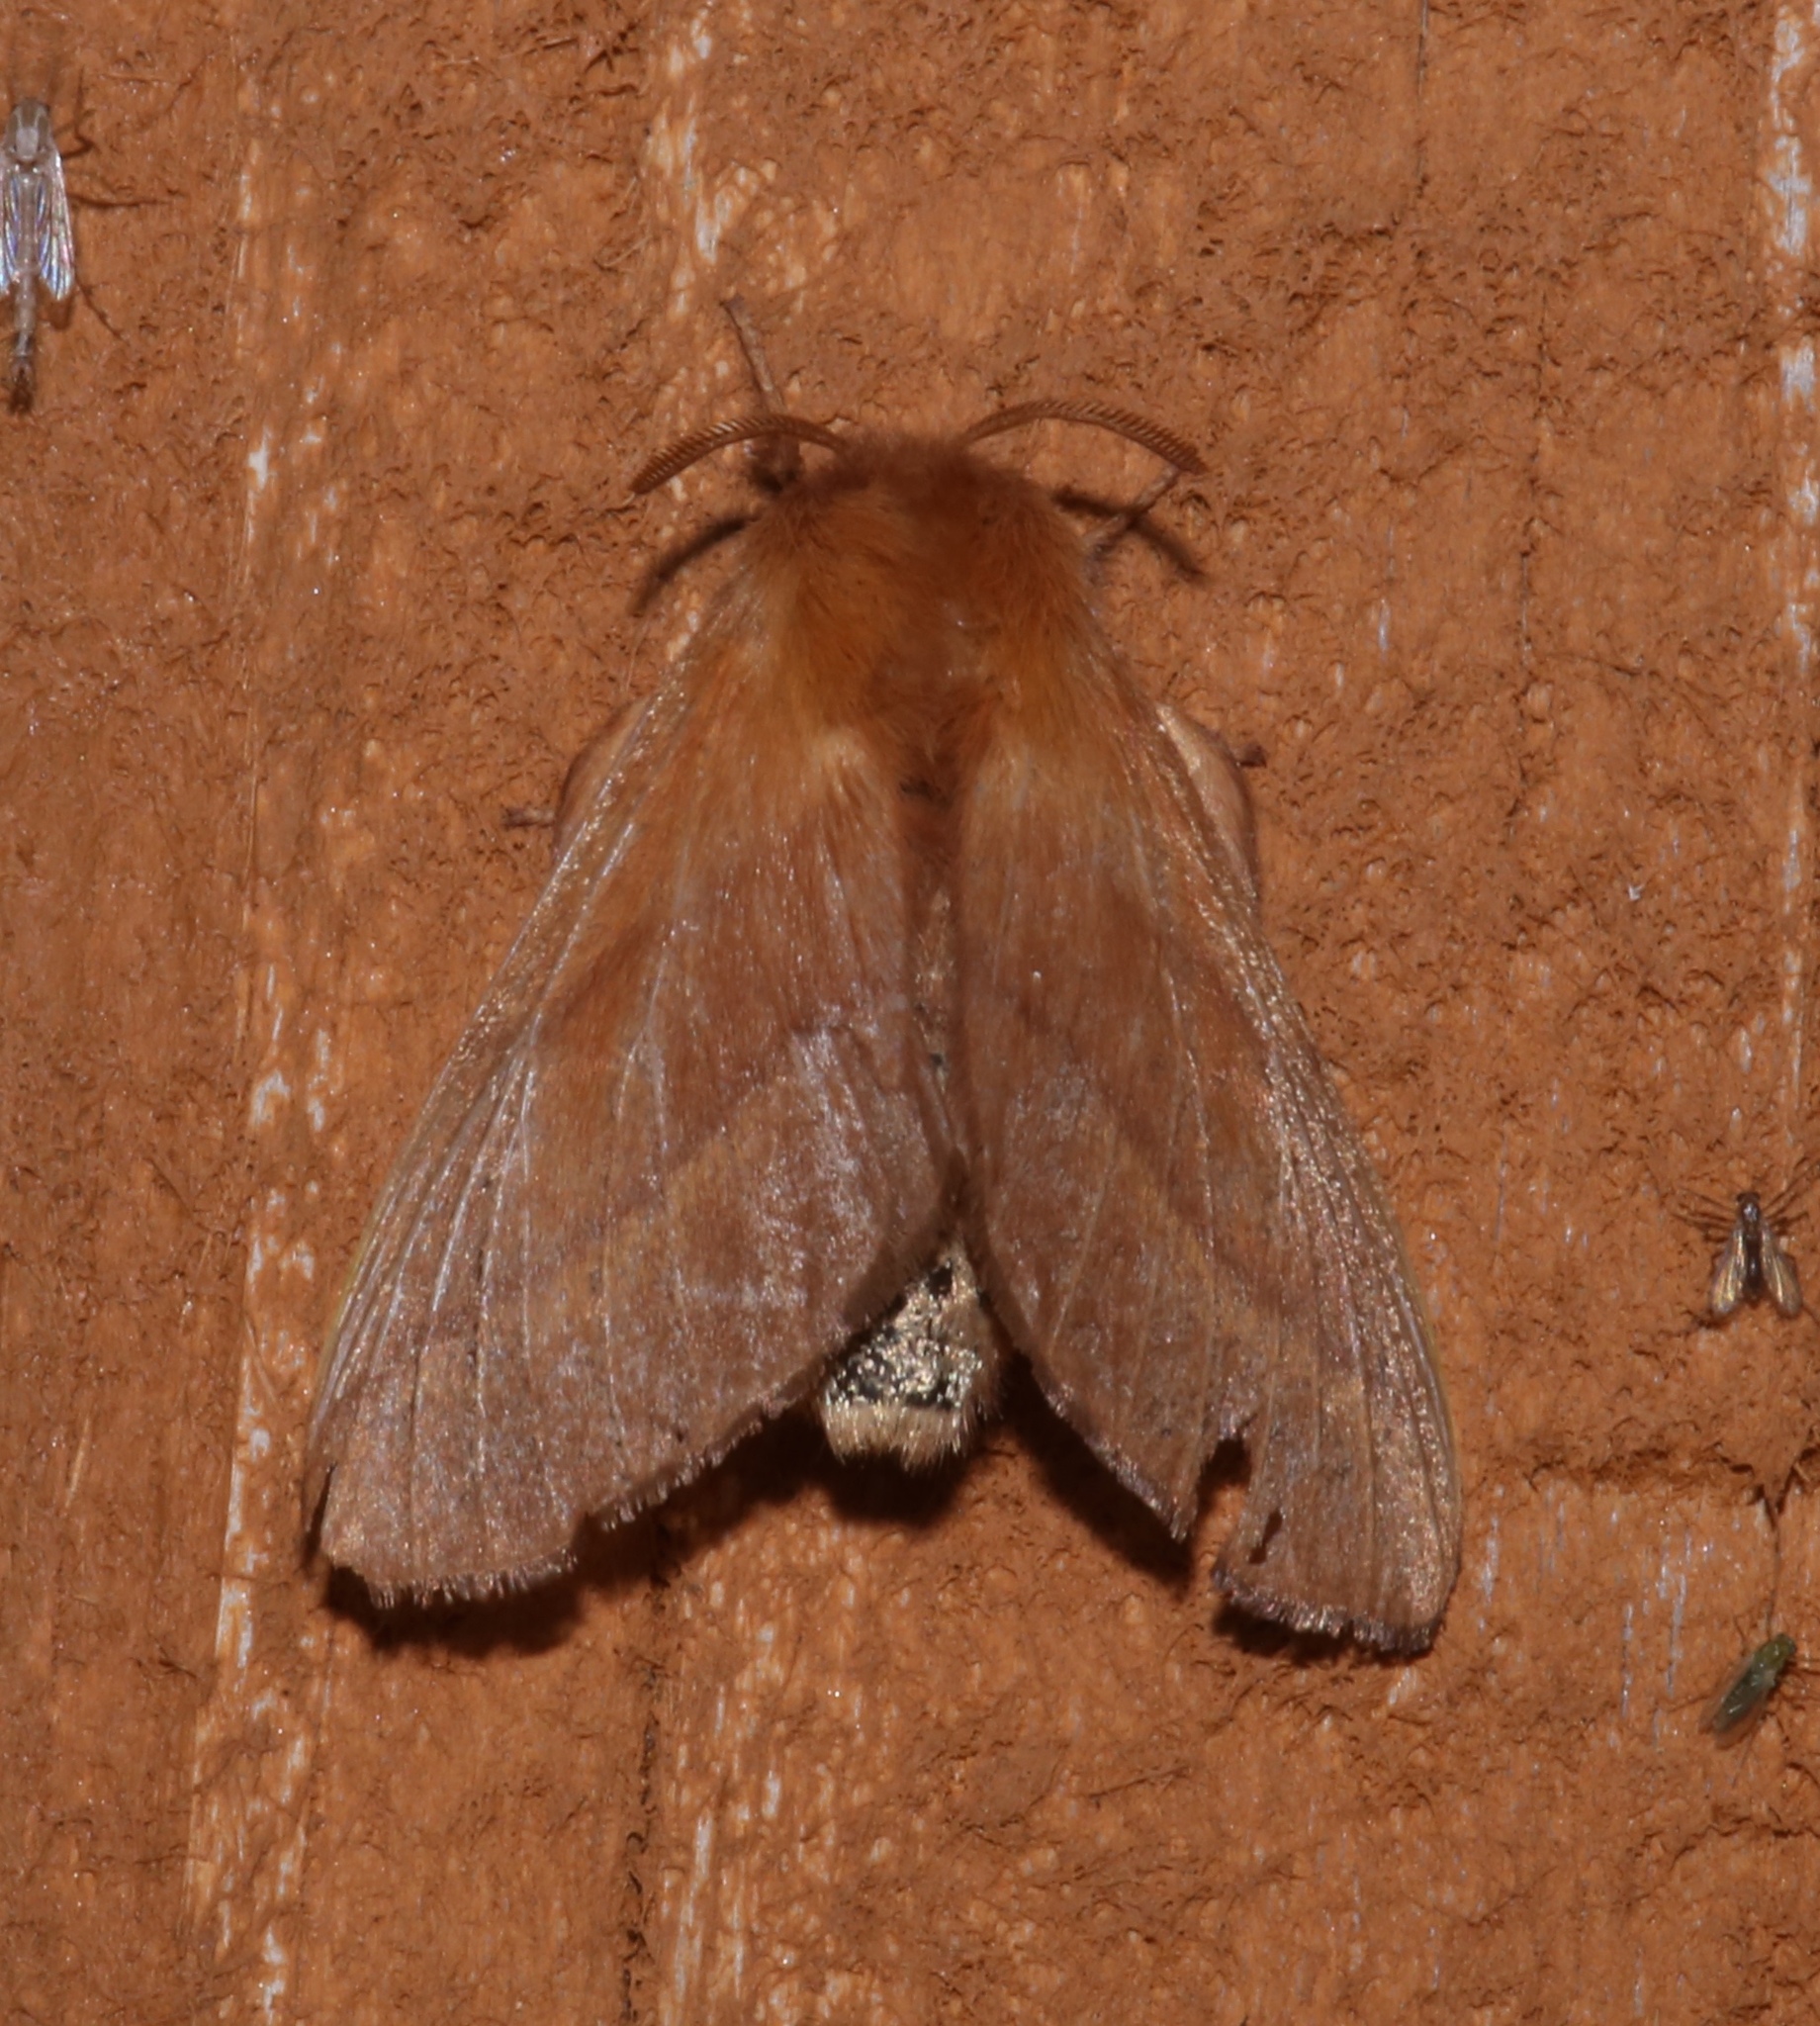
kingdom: Animalia
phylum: Arthropoda
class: Insecta
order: Lepidoptera
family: Lasiocampidae
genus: Malacosoma
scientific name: Malacosoma disstria
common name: Forest tent caterpillar
